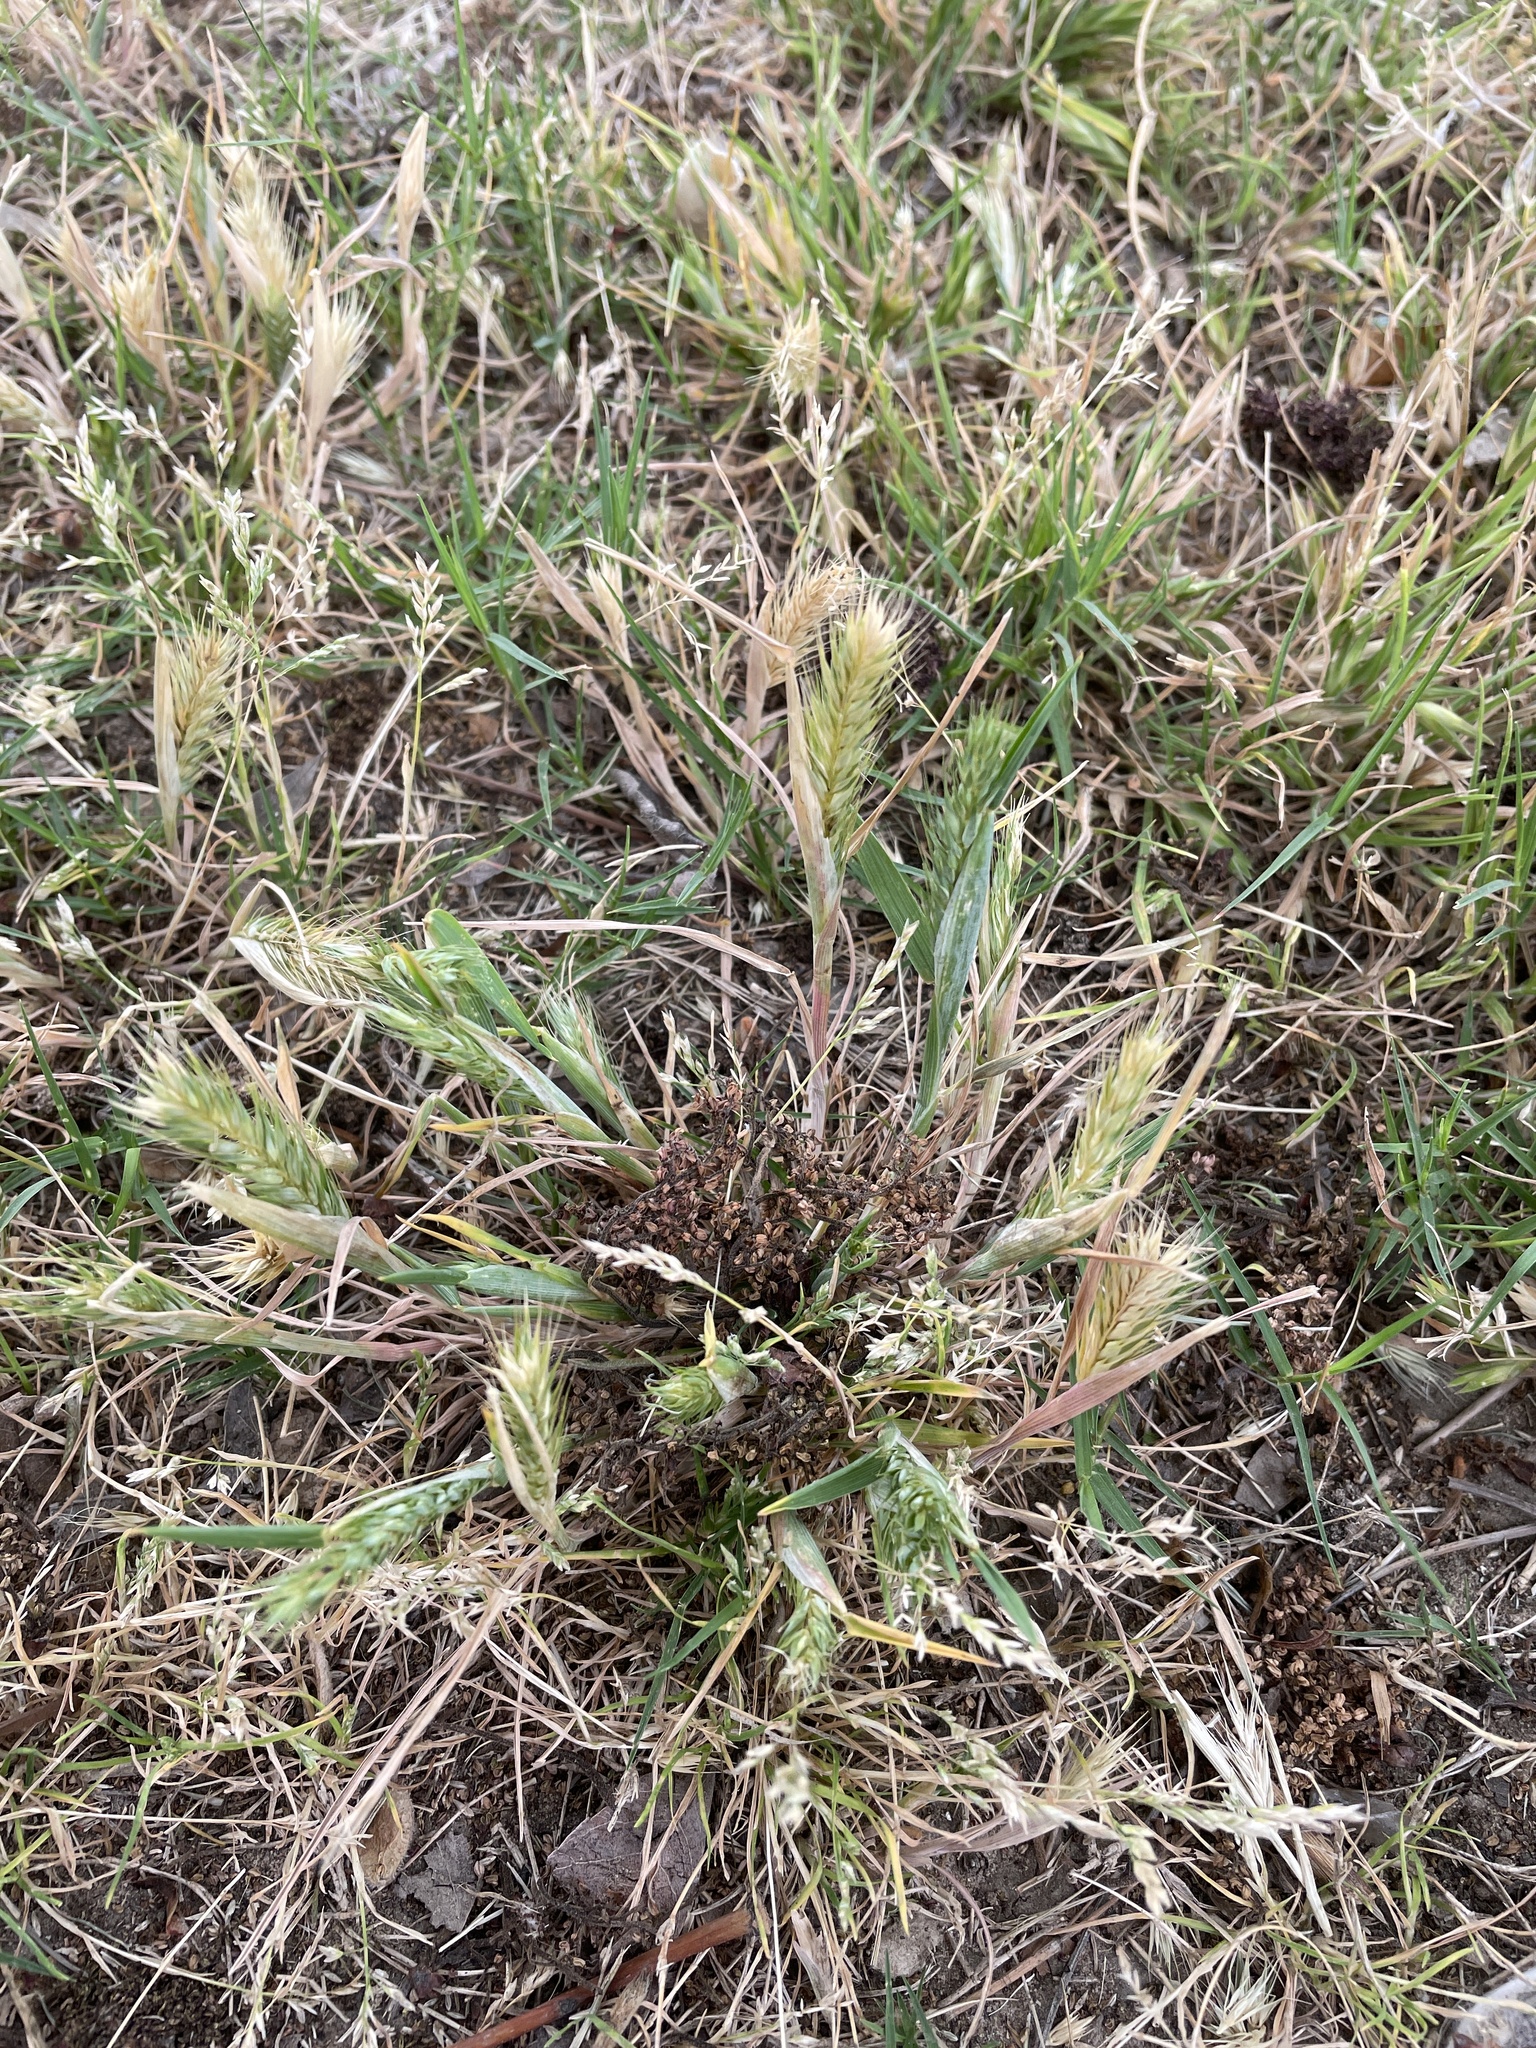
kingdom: Plantae
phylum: Tracheophyta
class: Liliopsida
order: Poales
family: Poaceae
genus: Hordeum
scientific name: Hordeum pusillum
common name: Little barley
